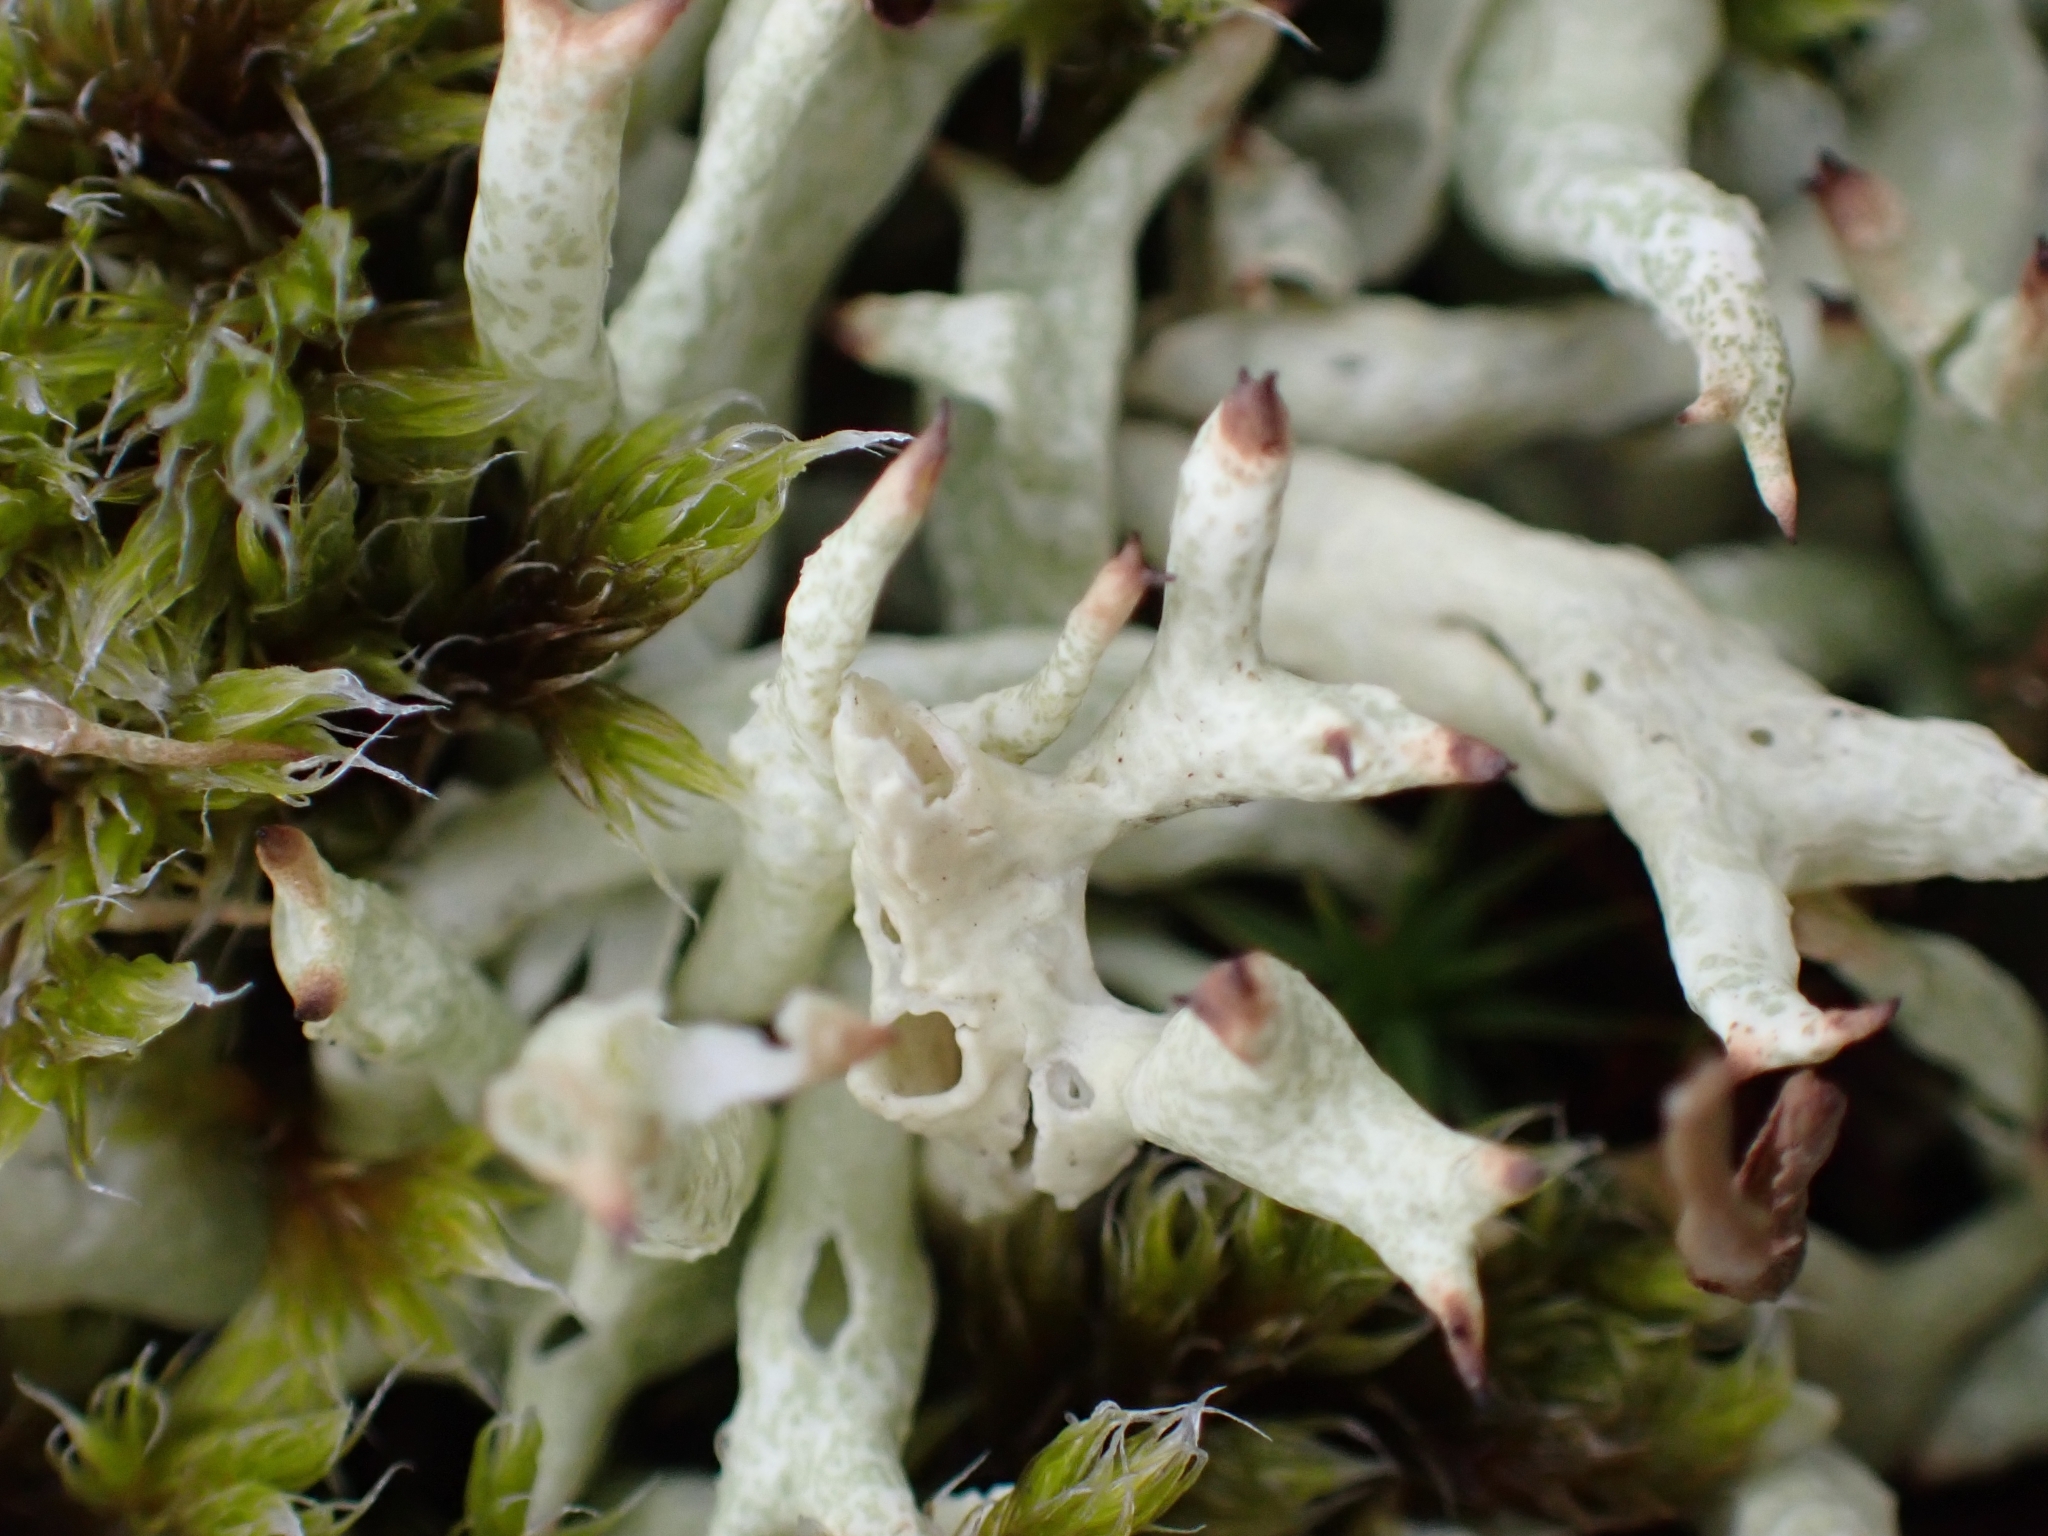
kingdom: Fungi
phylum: Ascomycota
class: Lecanoromycetes
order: Lecanorales
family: Cladoniaceae
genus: Cladonia
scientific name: Cladonia uncialis
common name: Thorn lichen
